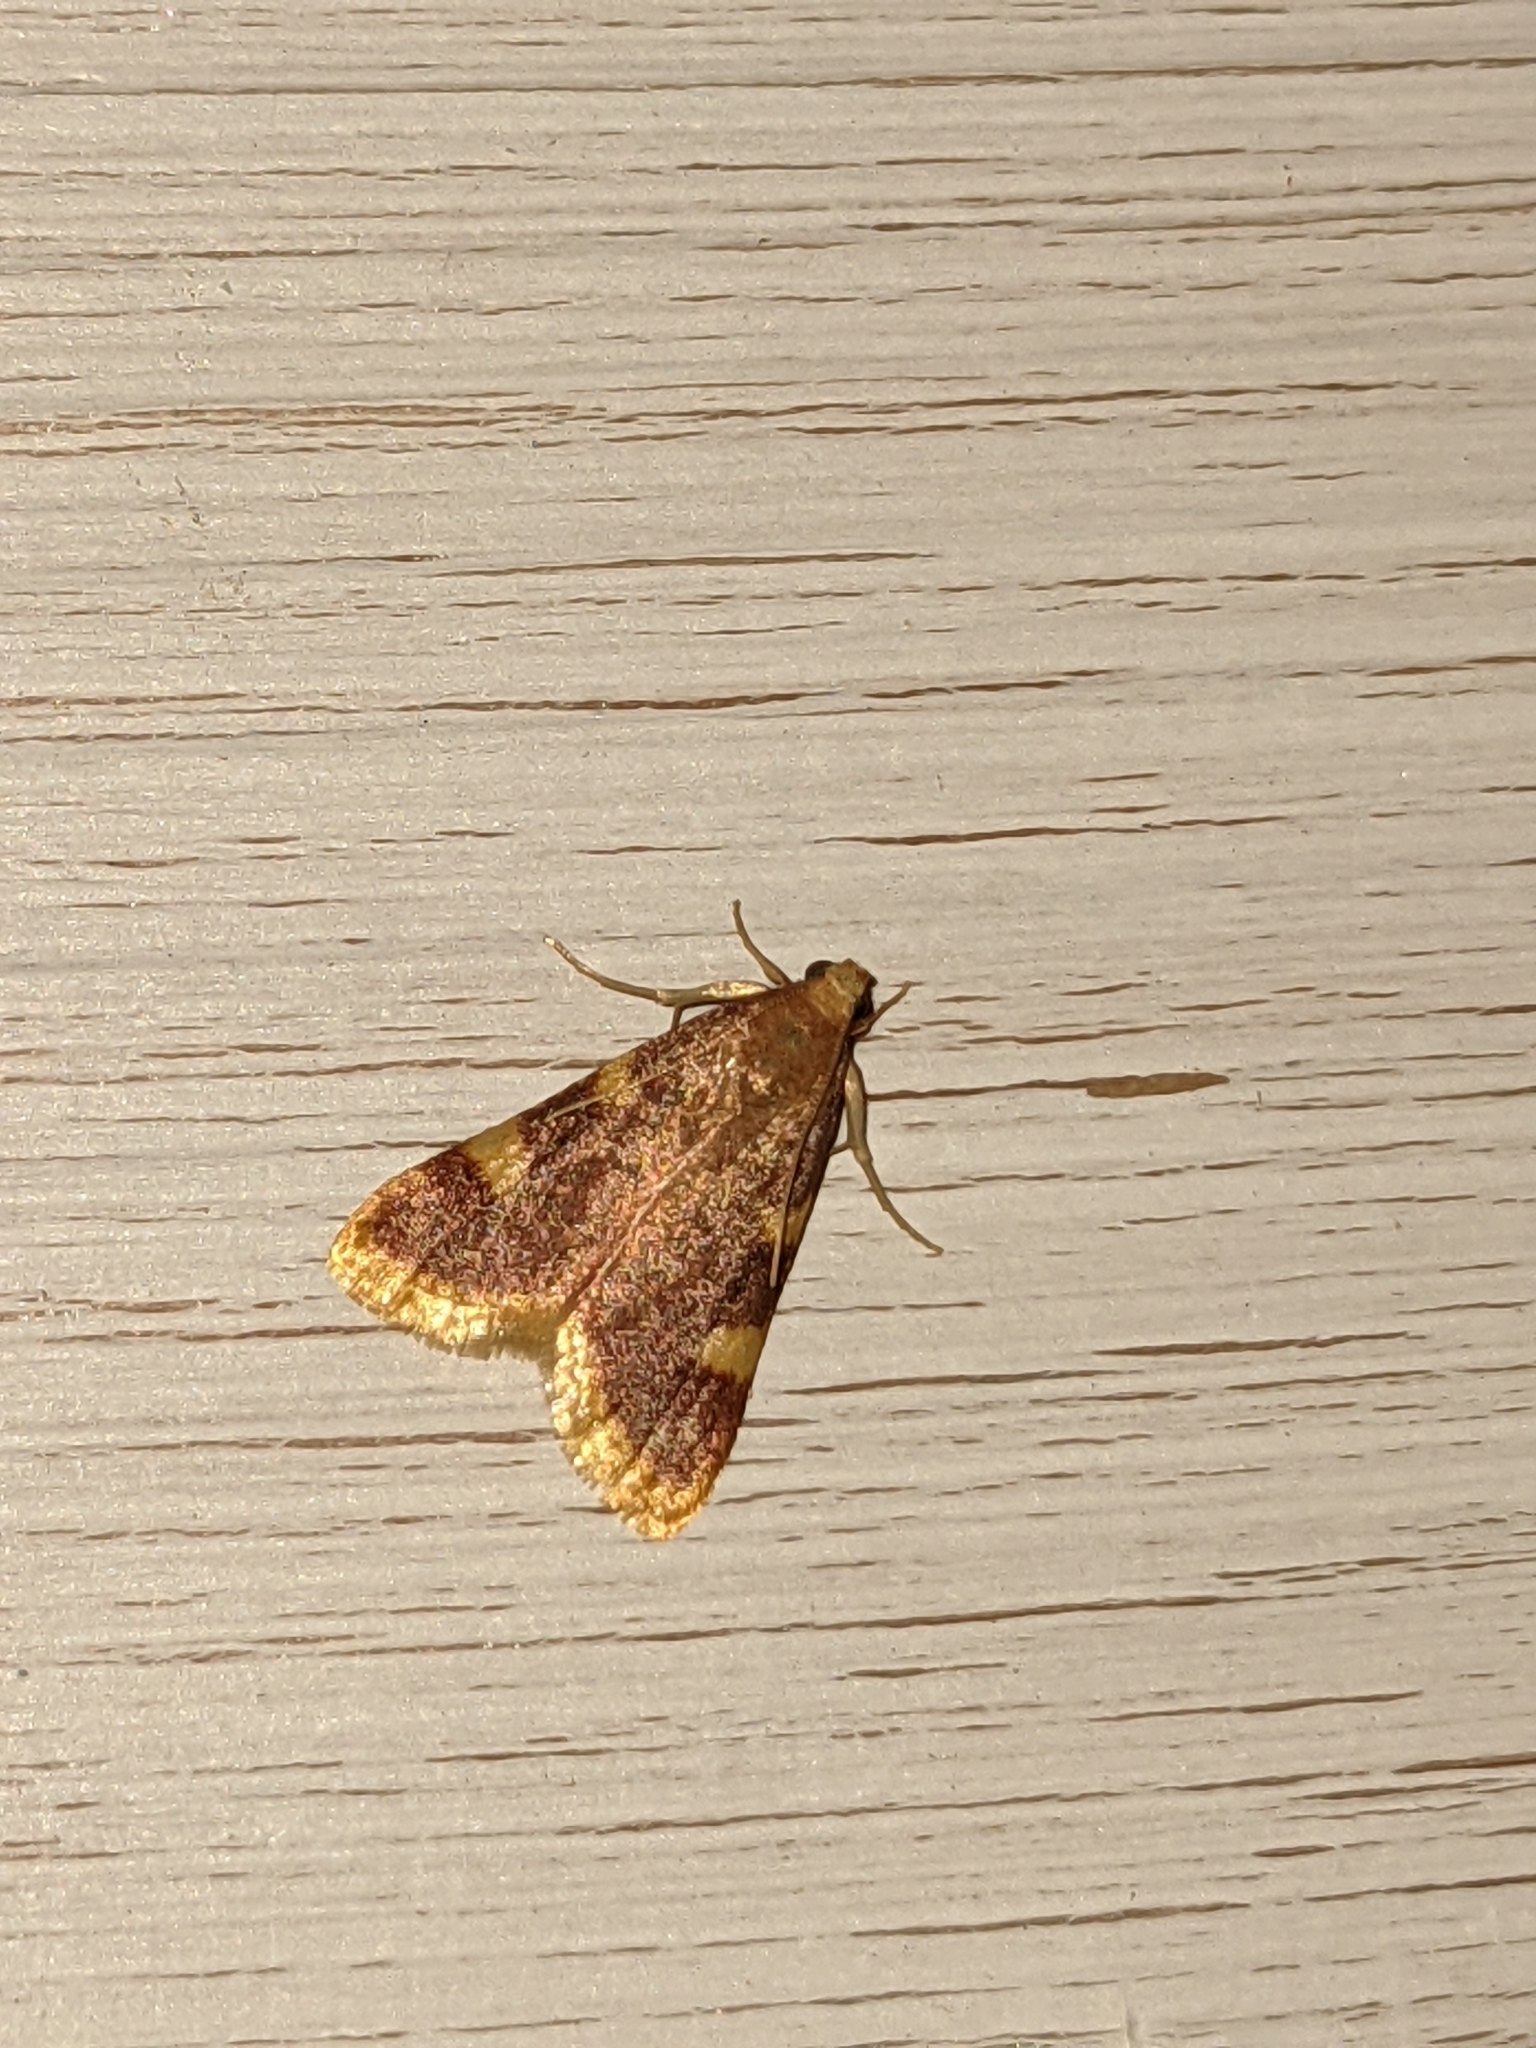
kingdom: Animalia
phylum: Arthropoda
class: Insecta
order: Lepidoptera
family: Pyralidae
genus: Hypsopygia
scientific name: Hypsopygia costalis
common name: Gold triangle
